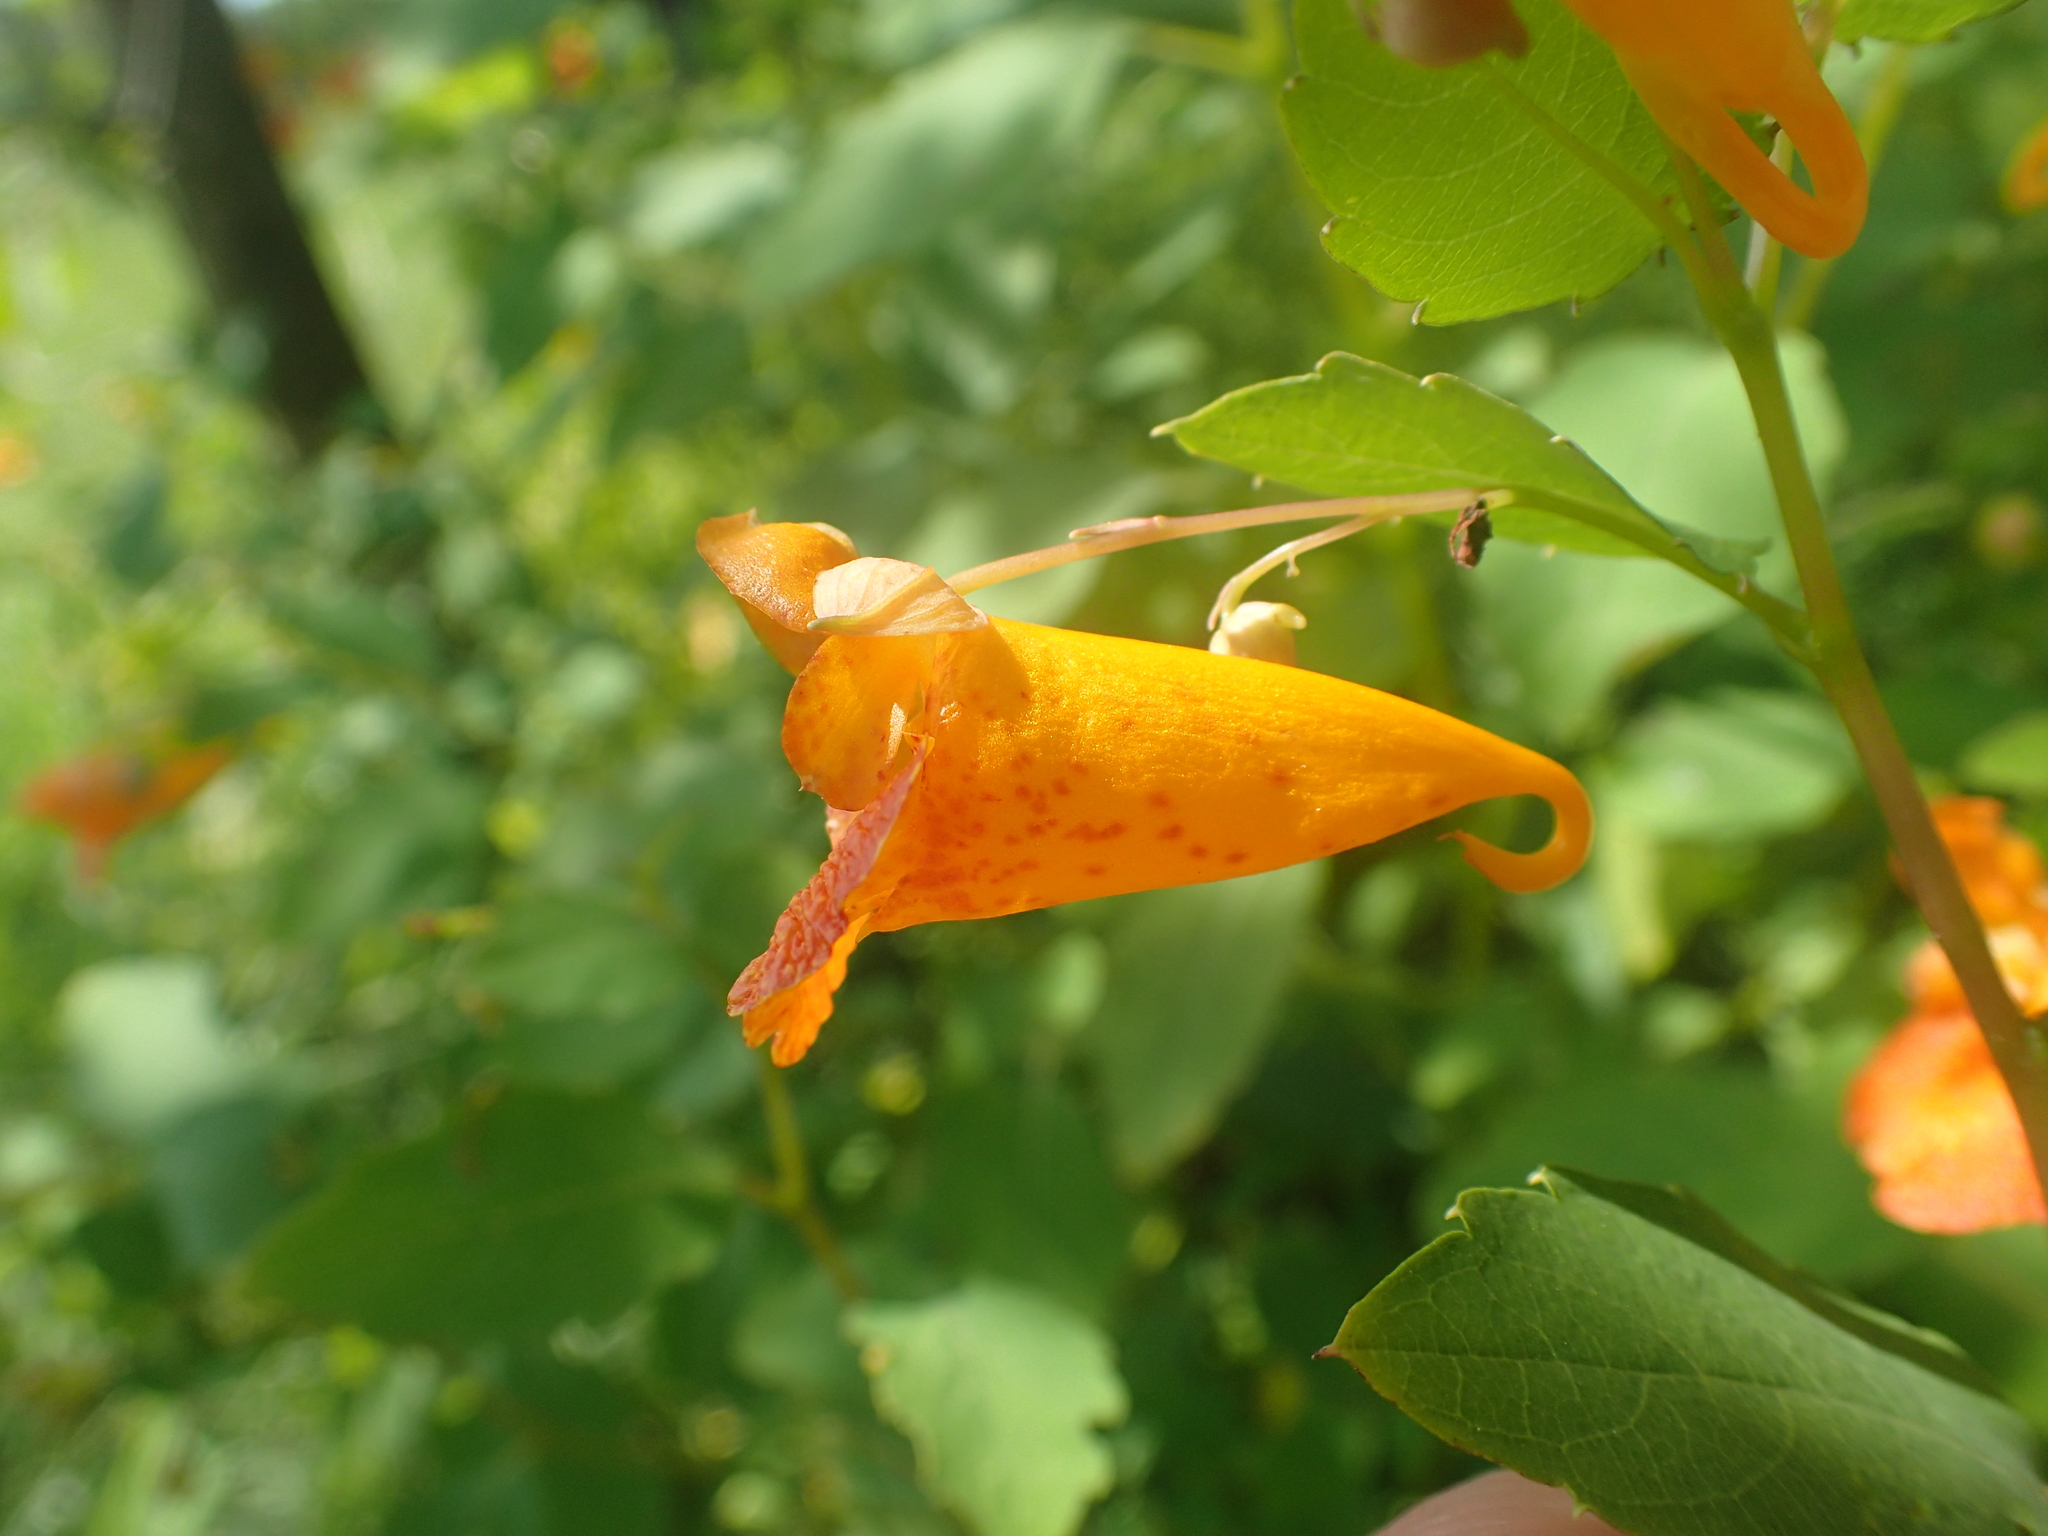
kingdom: Plantae
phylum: Tracheophyta
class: Magnoliopsida
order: Ericales
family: Balsaminaceae
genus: Impatiens
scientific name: Impatiens capensis
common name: Orange balsam
